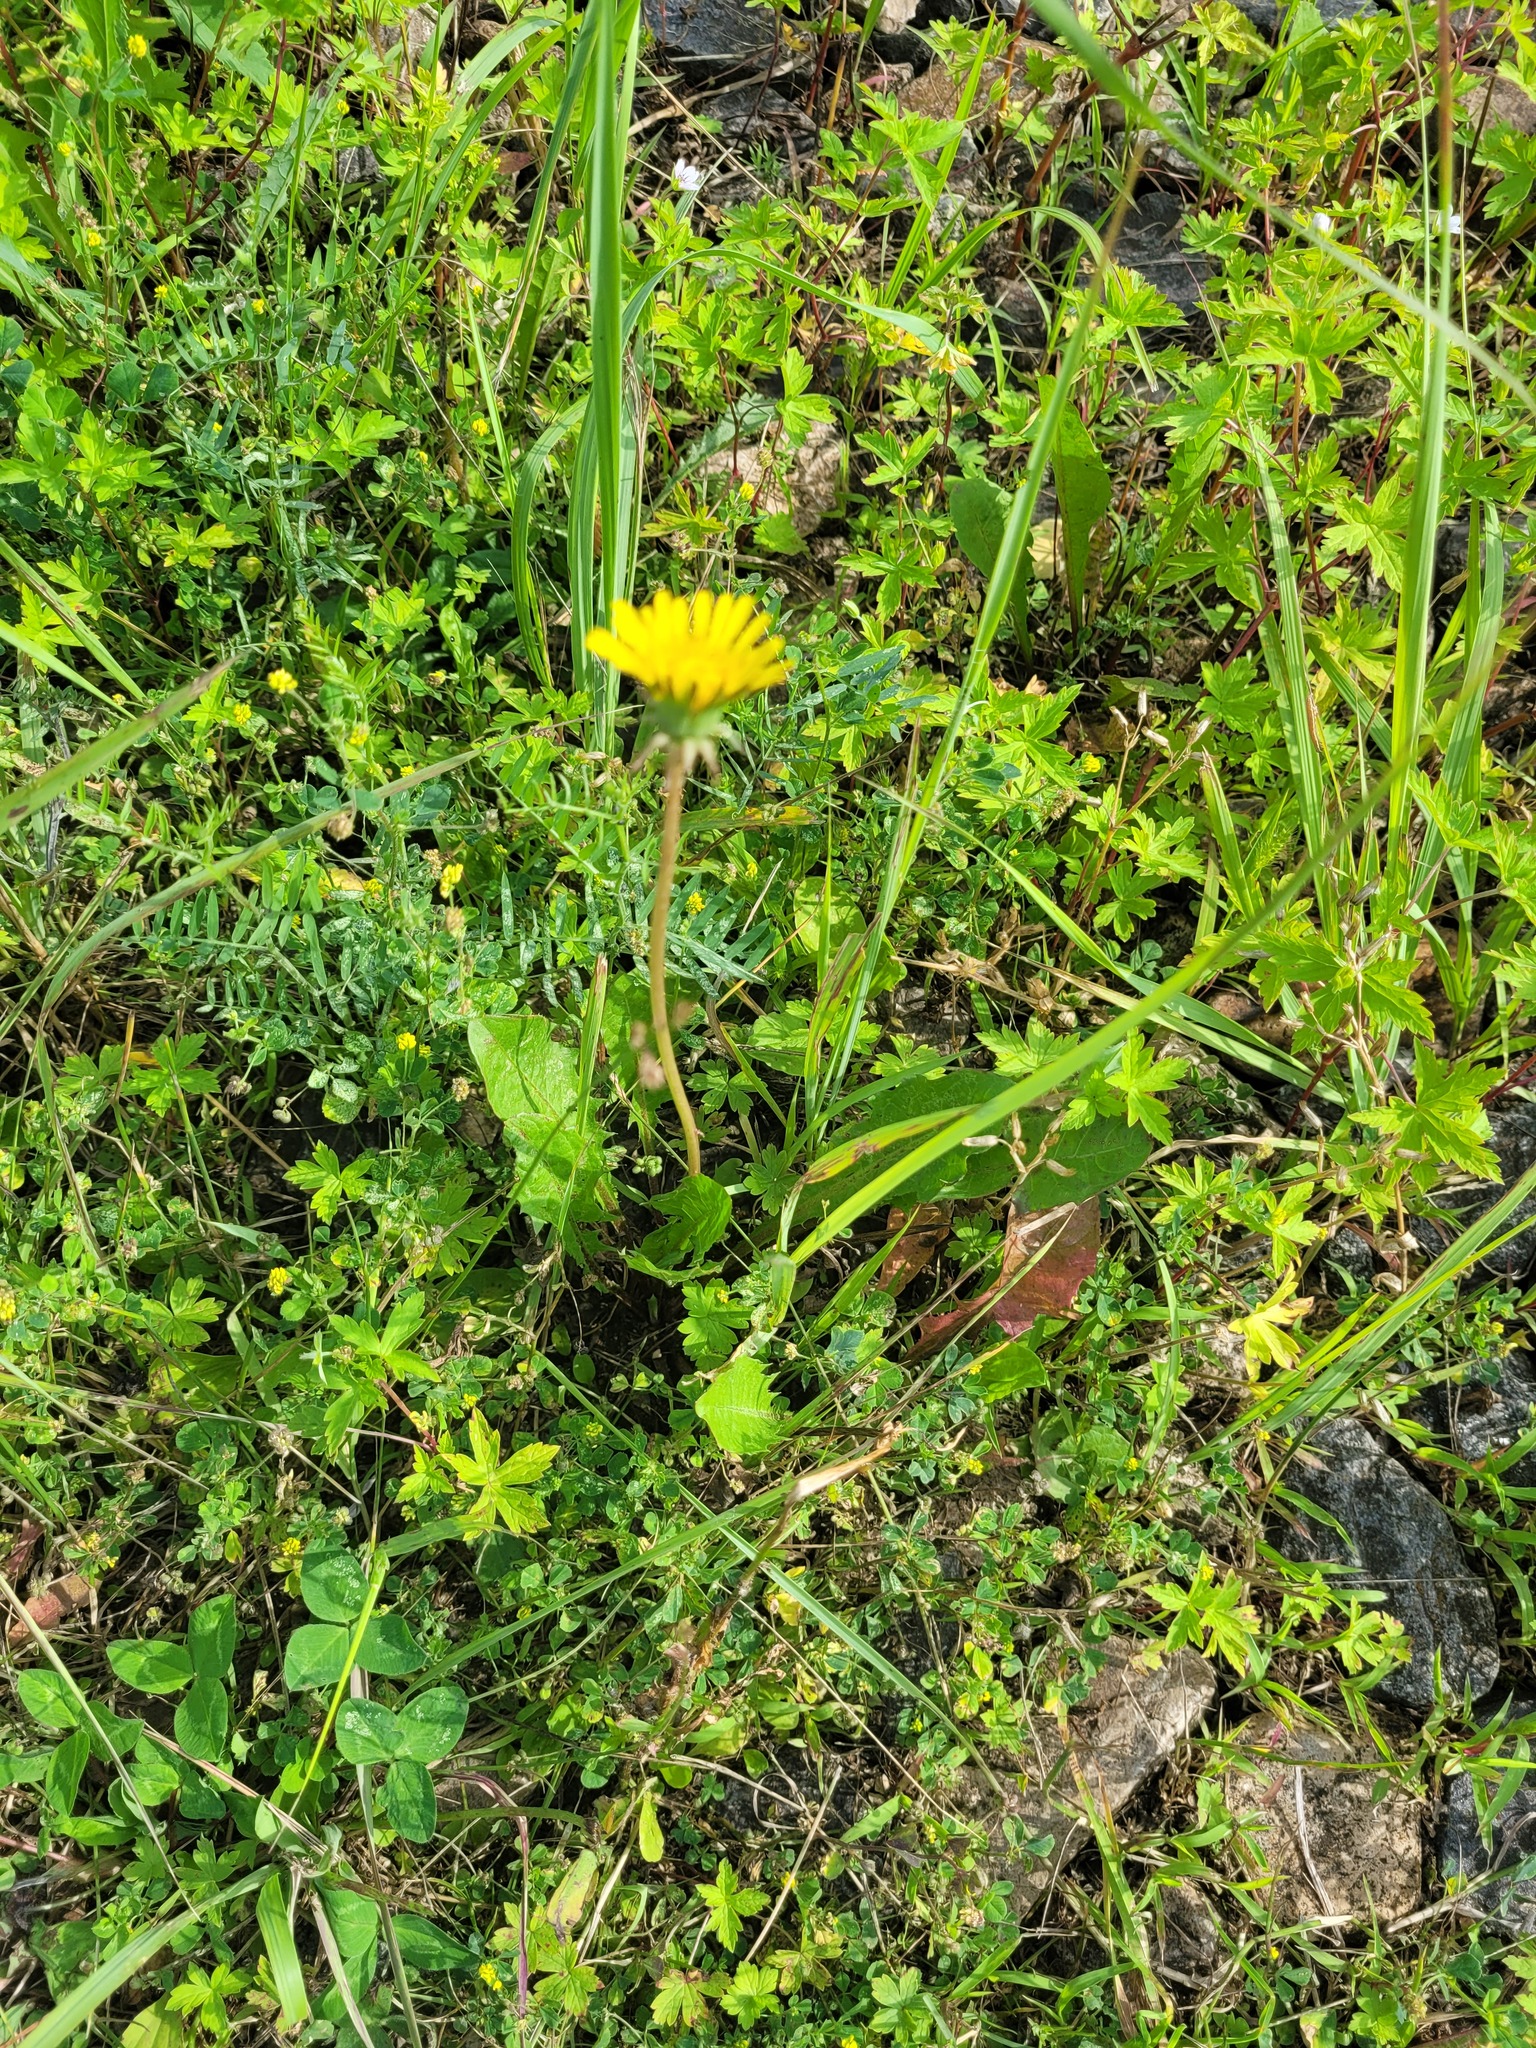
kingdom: Plantae
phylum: Tracheophyta
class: Magnoliopsida
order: Asterales
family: Asteraceae
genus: Taraxacum
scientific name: Taraxacum officinale
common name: Common dandelion
